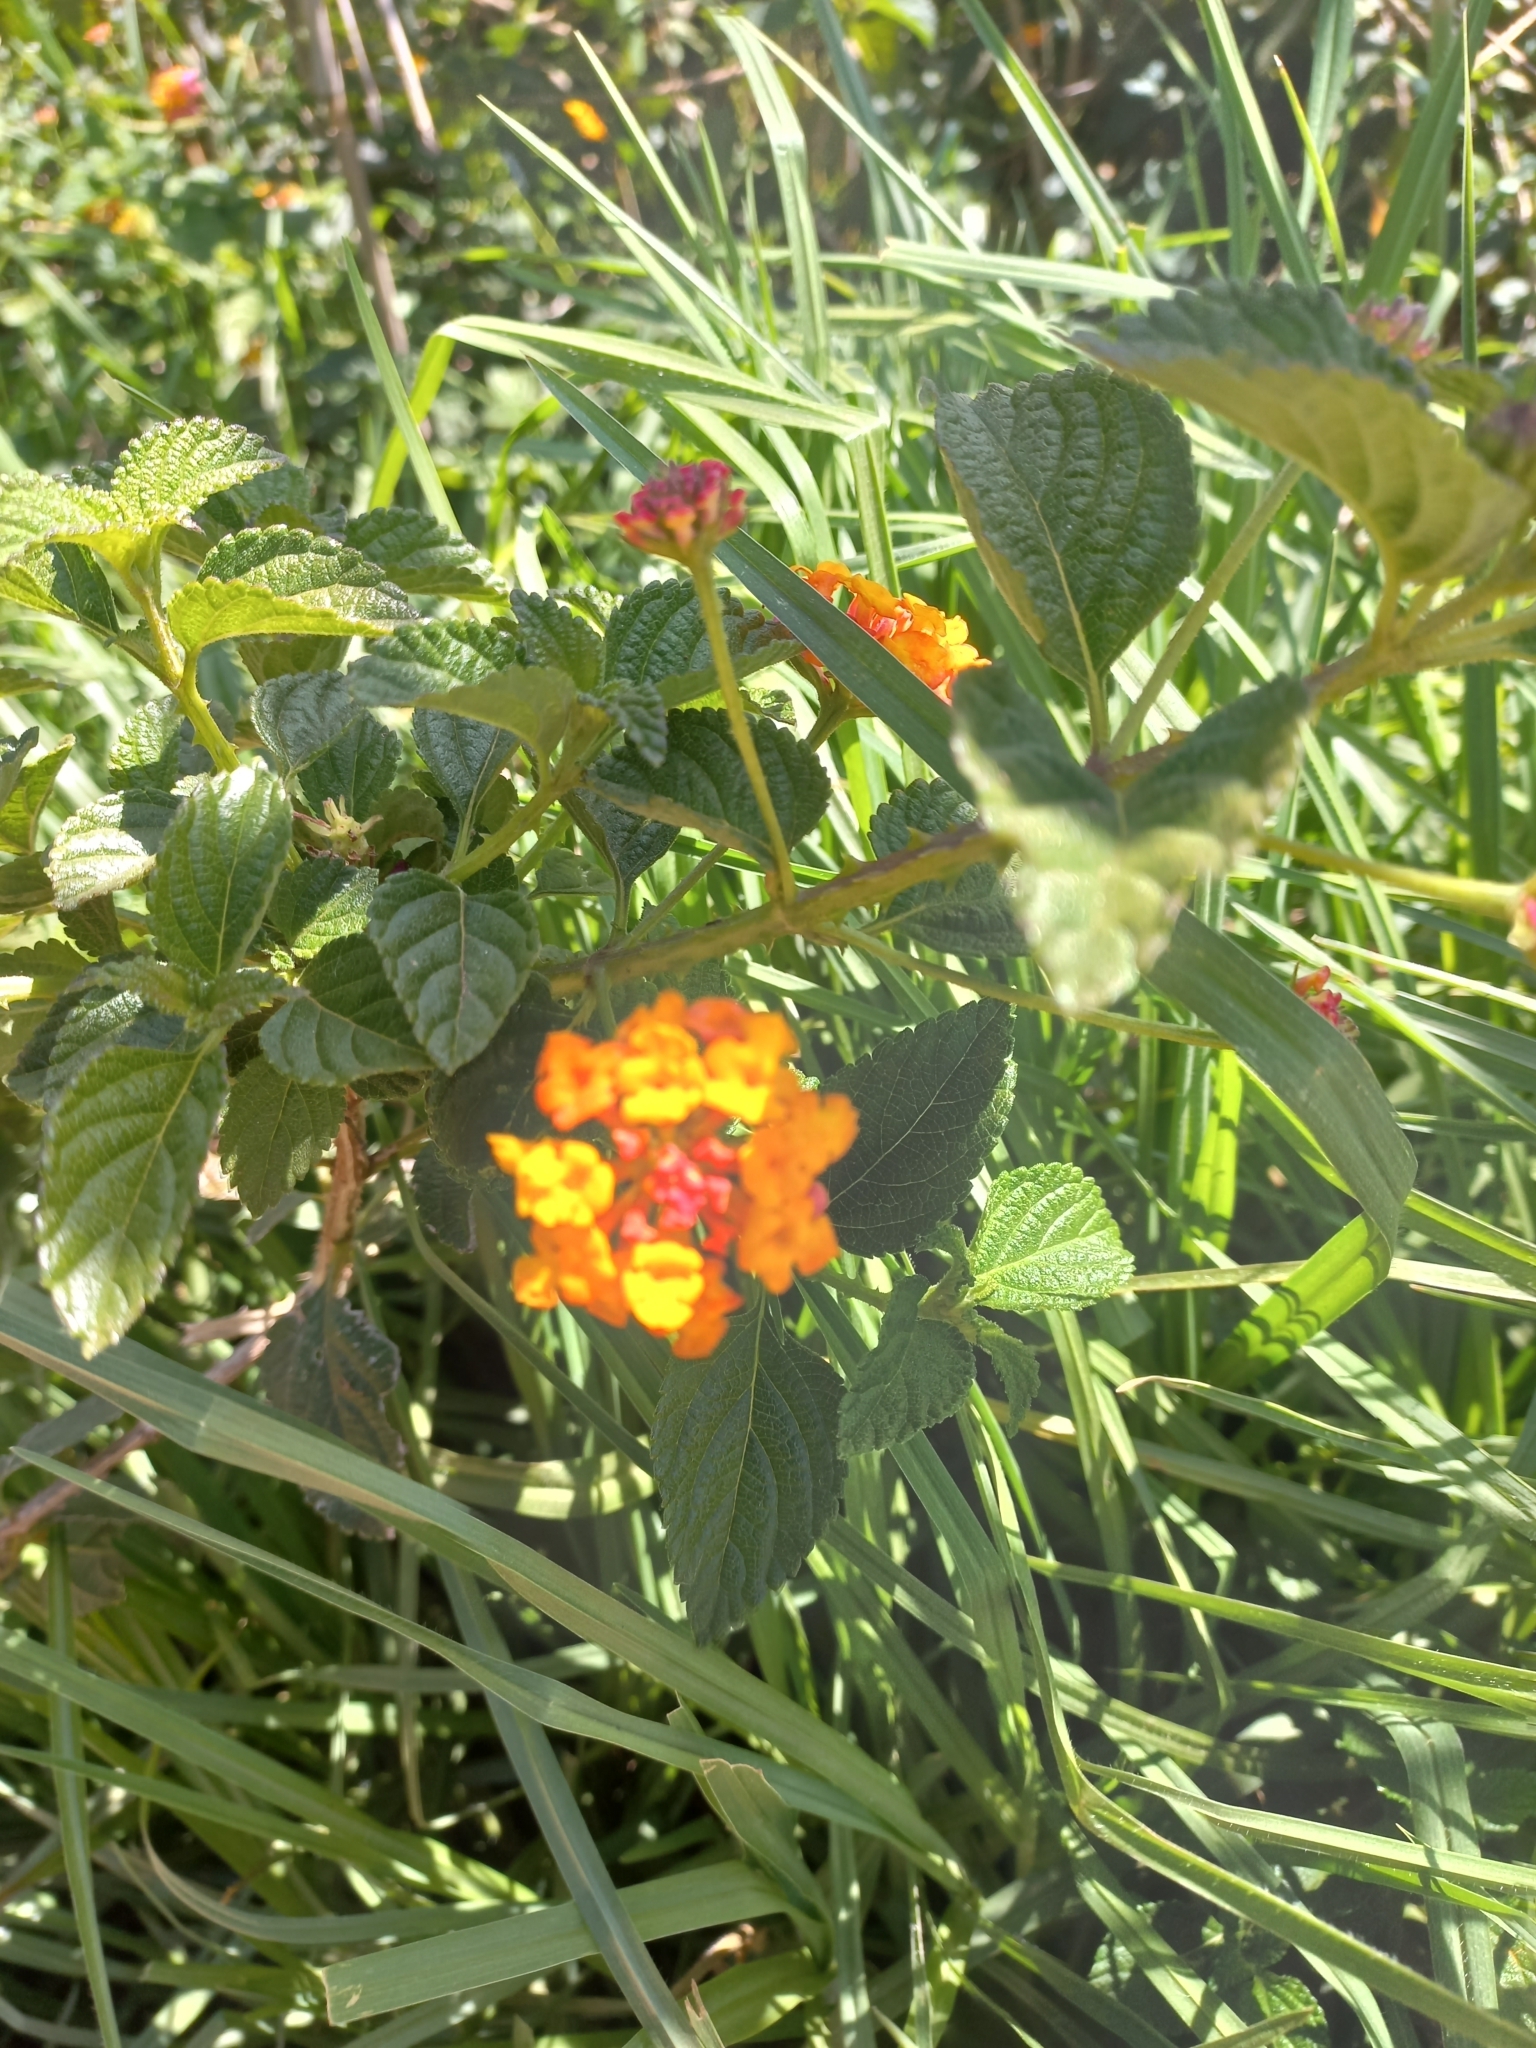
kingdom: Plantae
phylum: Tracheophyta
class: Magnoliopsida
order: Lamiales
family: Verbenaceae
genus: Lantana
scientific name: Lantana camara
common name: Lantana
